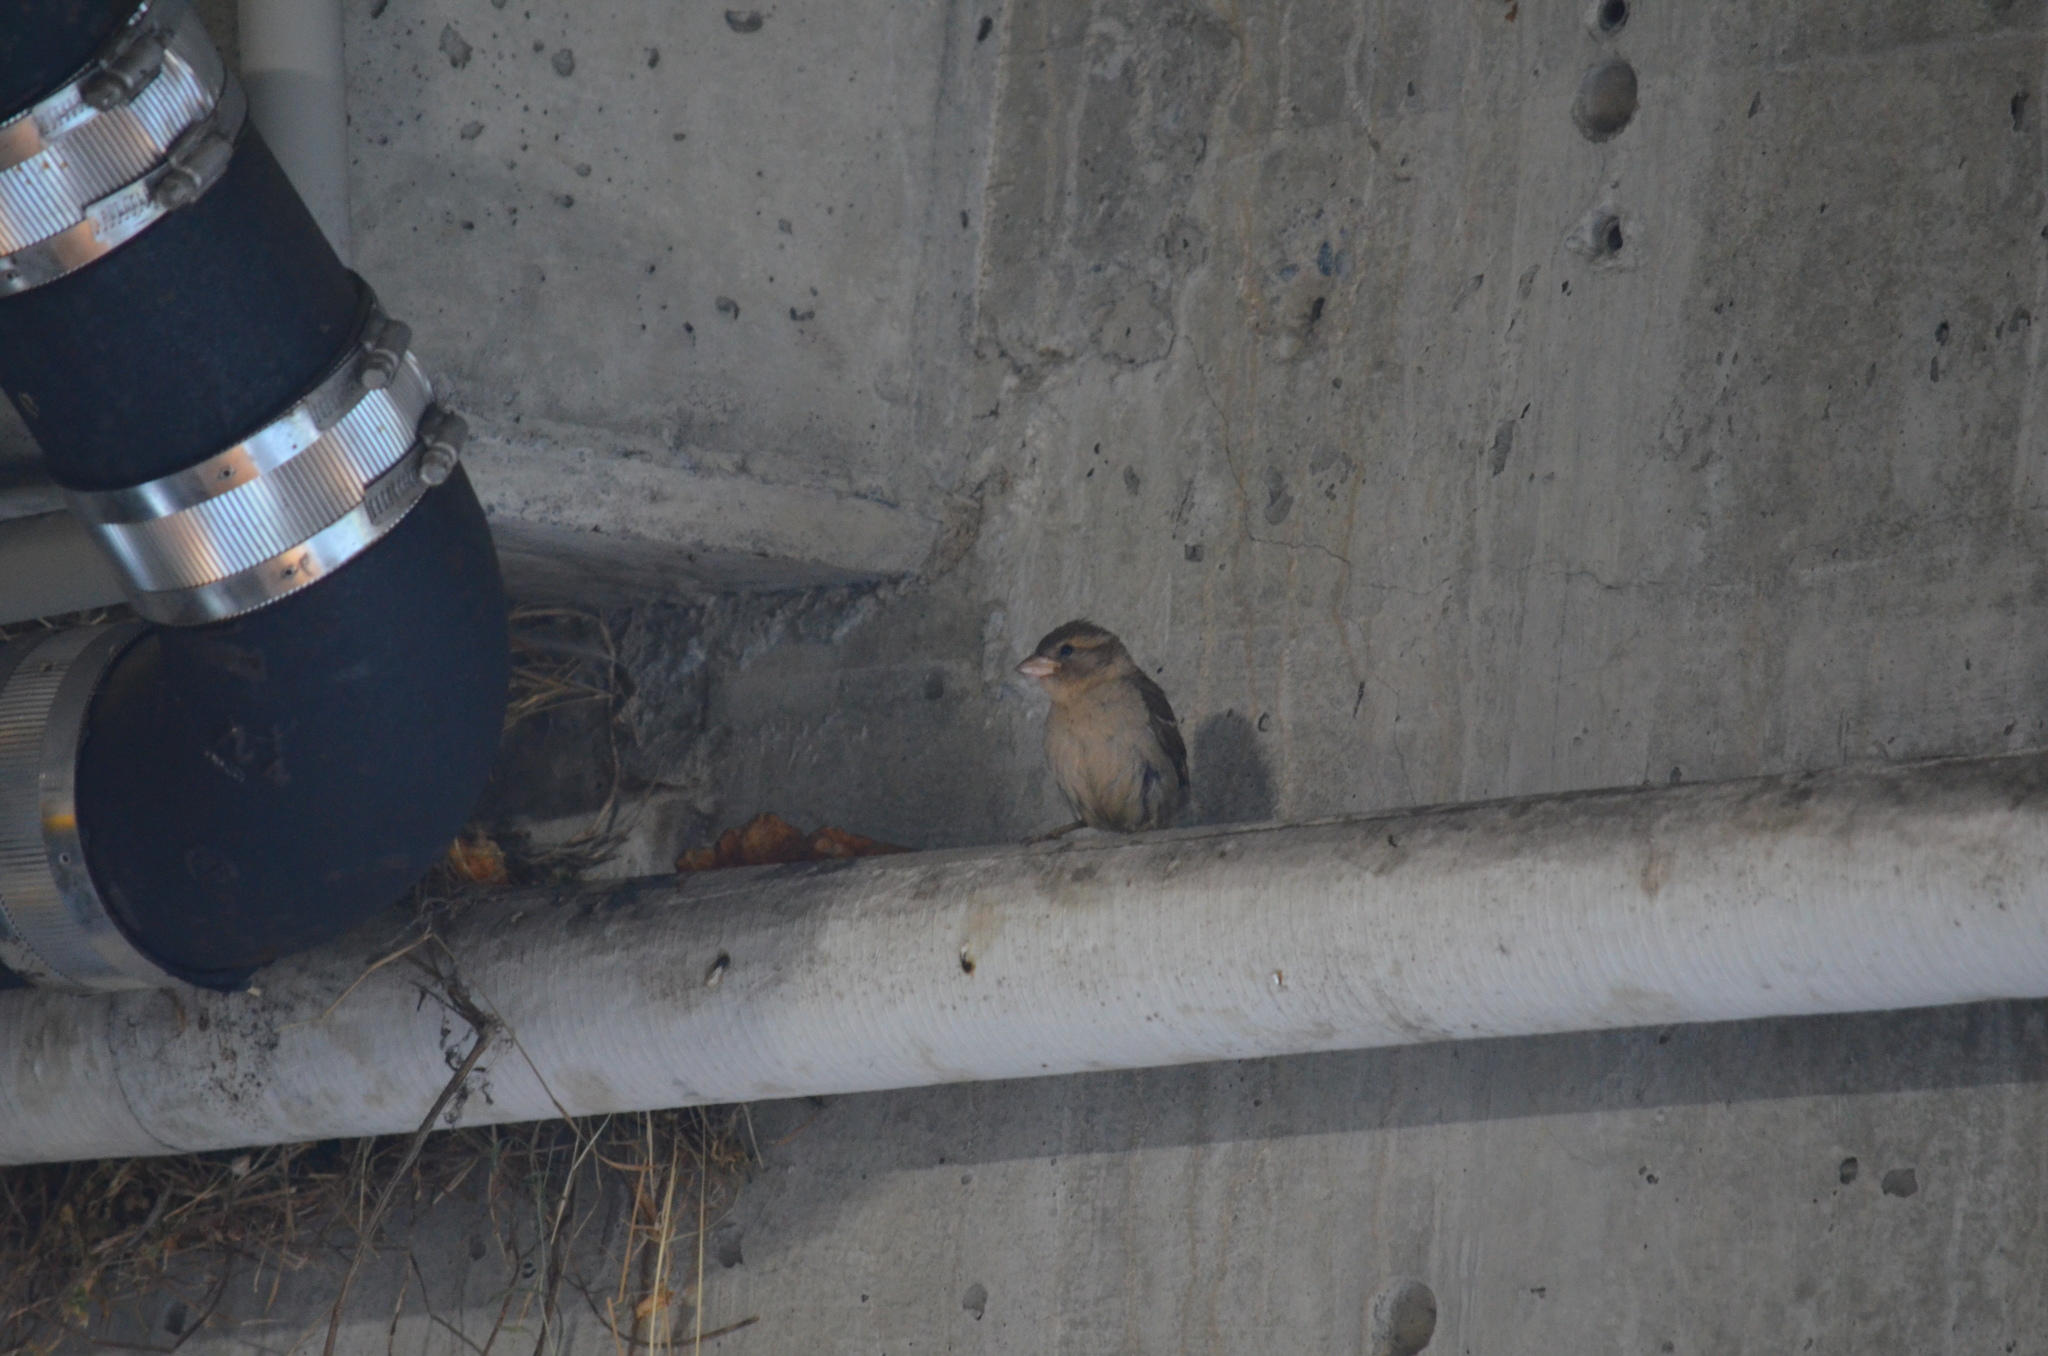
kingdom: Animalia
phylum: Chordata
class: Aves
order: Passeriformes
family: Passeridae
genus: Passer
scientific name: Passer domesticus
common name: House sparrow
